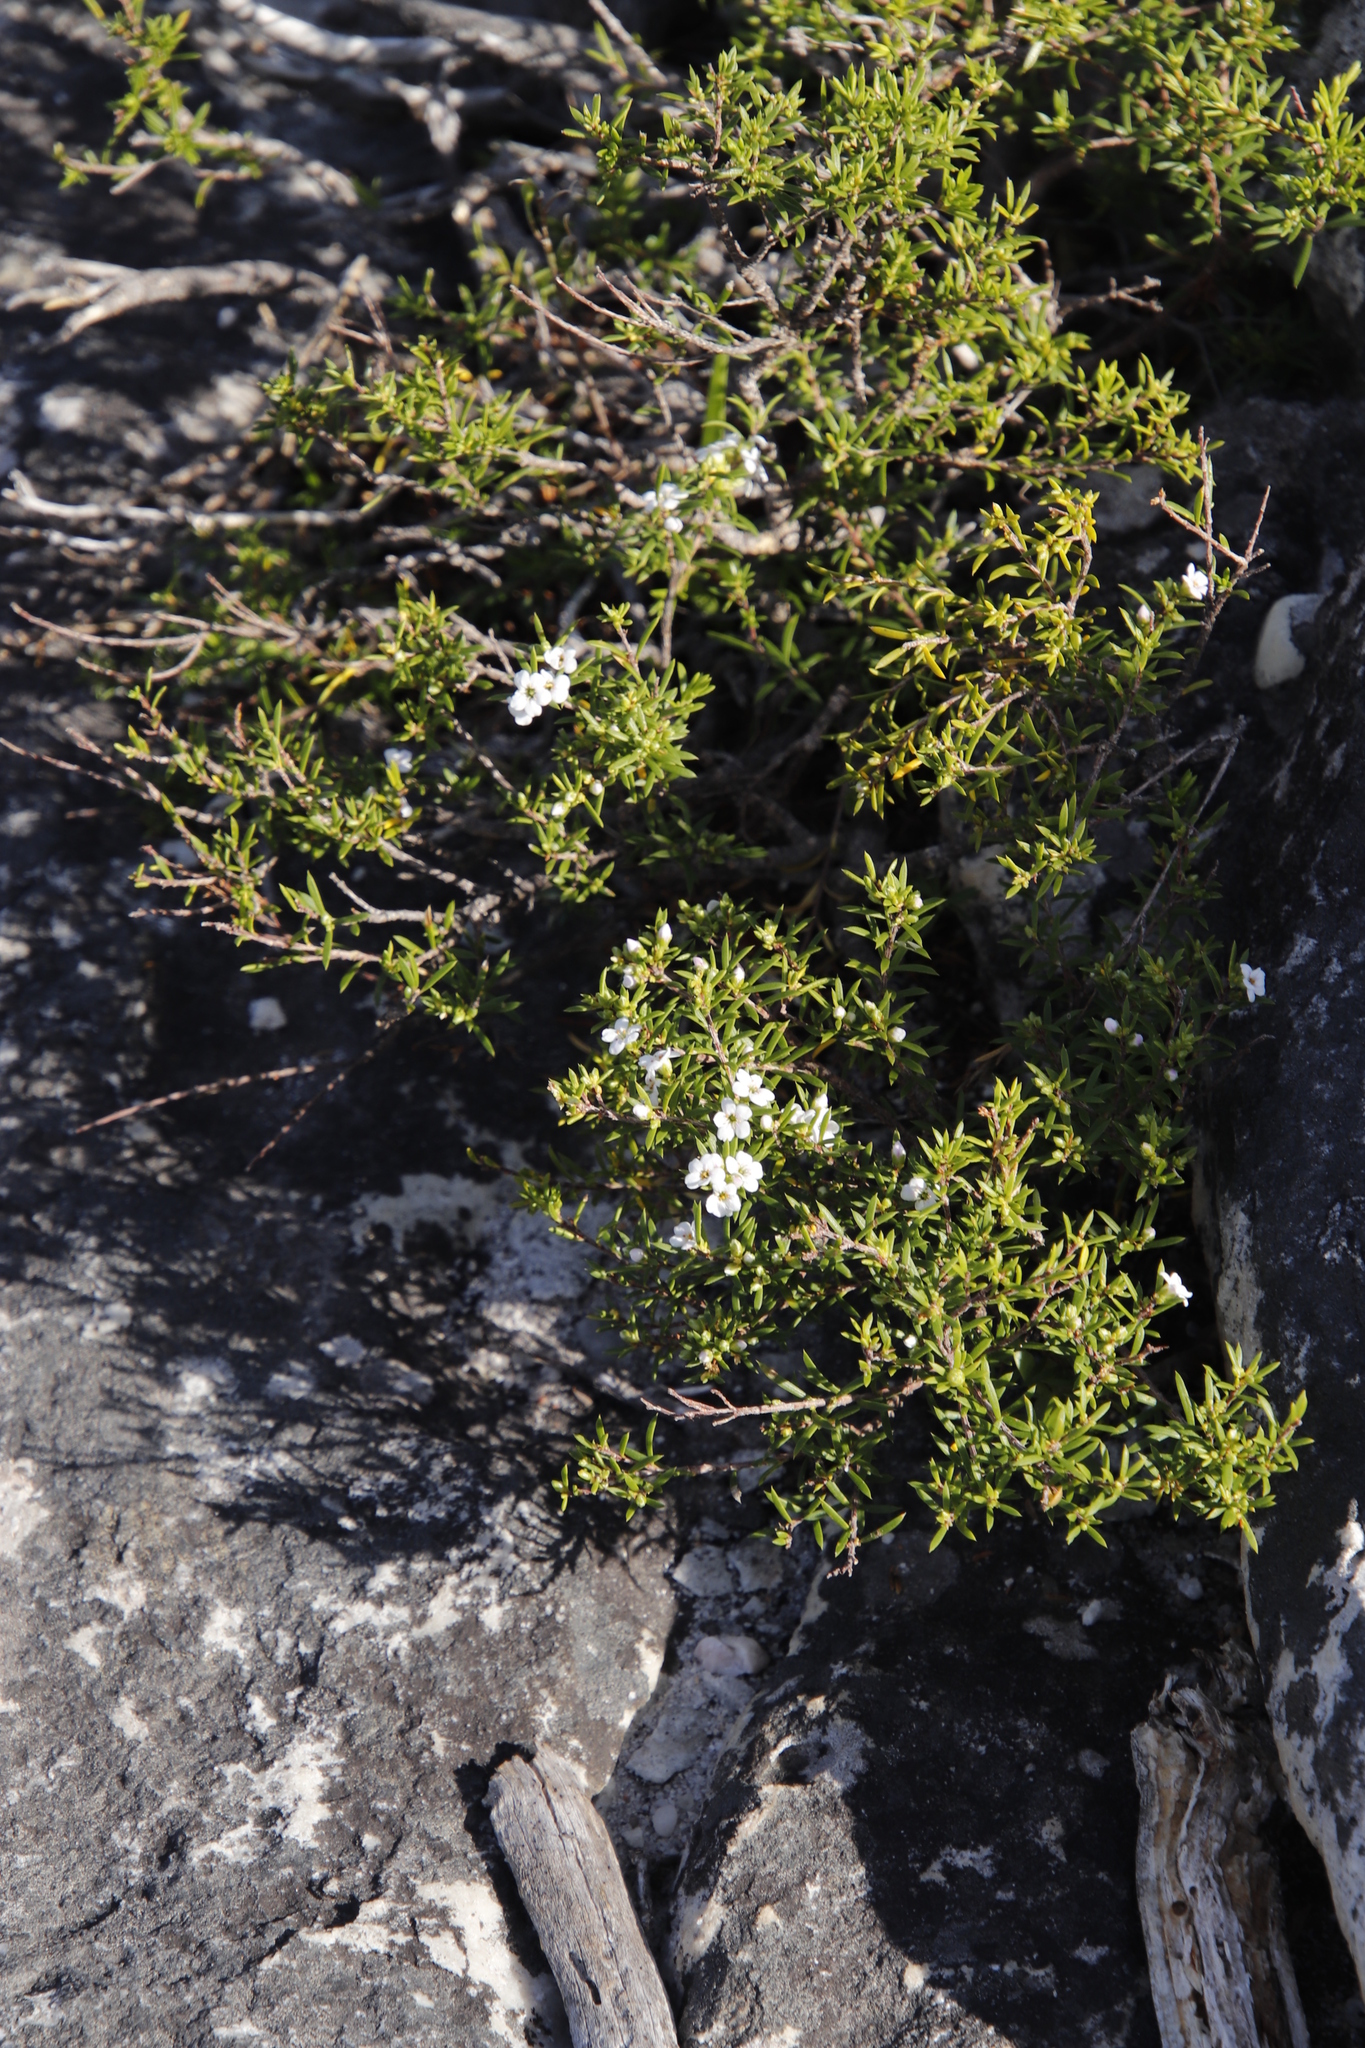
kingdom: Plantae
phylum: Tracheophyta
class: Magnoliopsida
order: Sapindales
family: Rutaceae
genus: Coleonema
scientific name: Coleonema album
